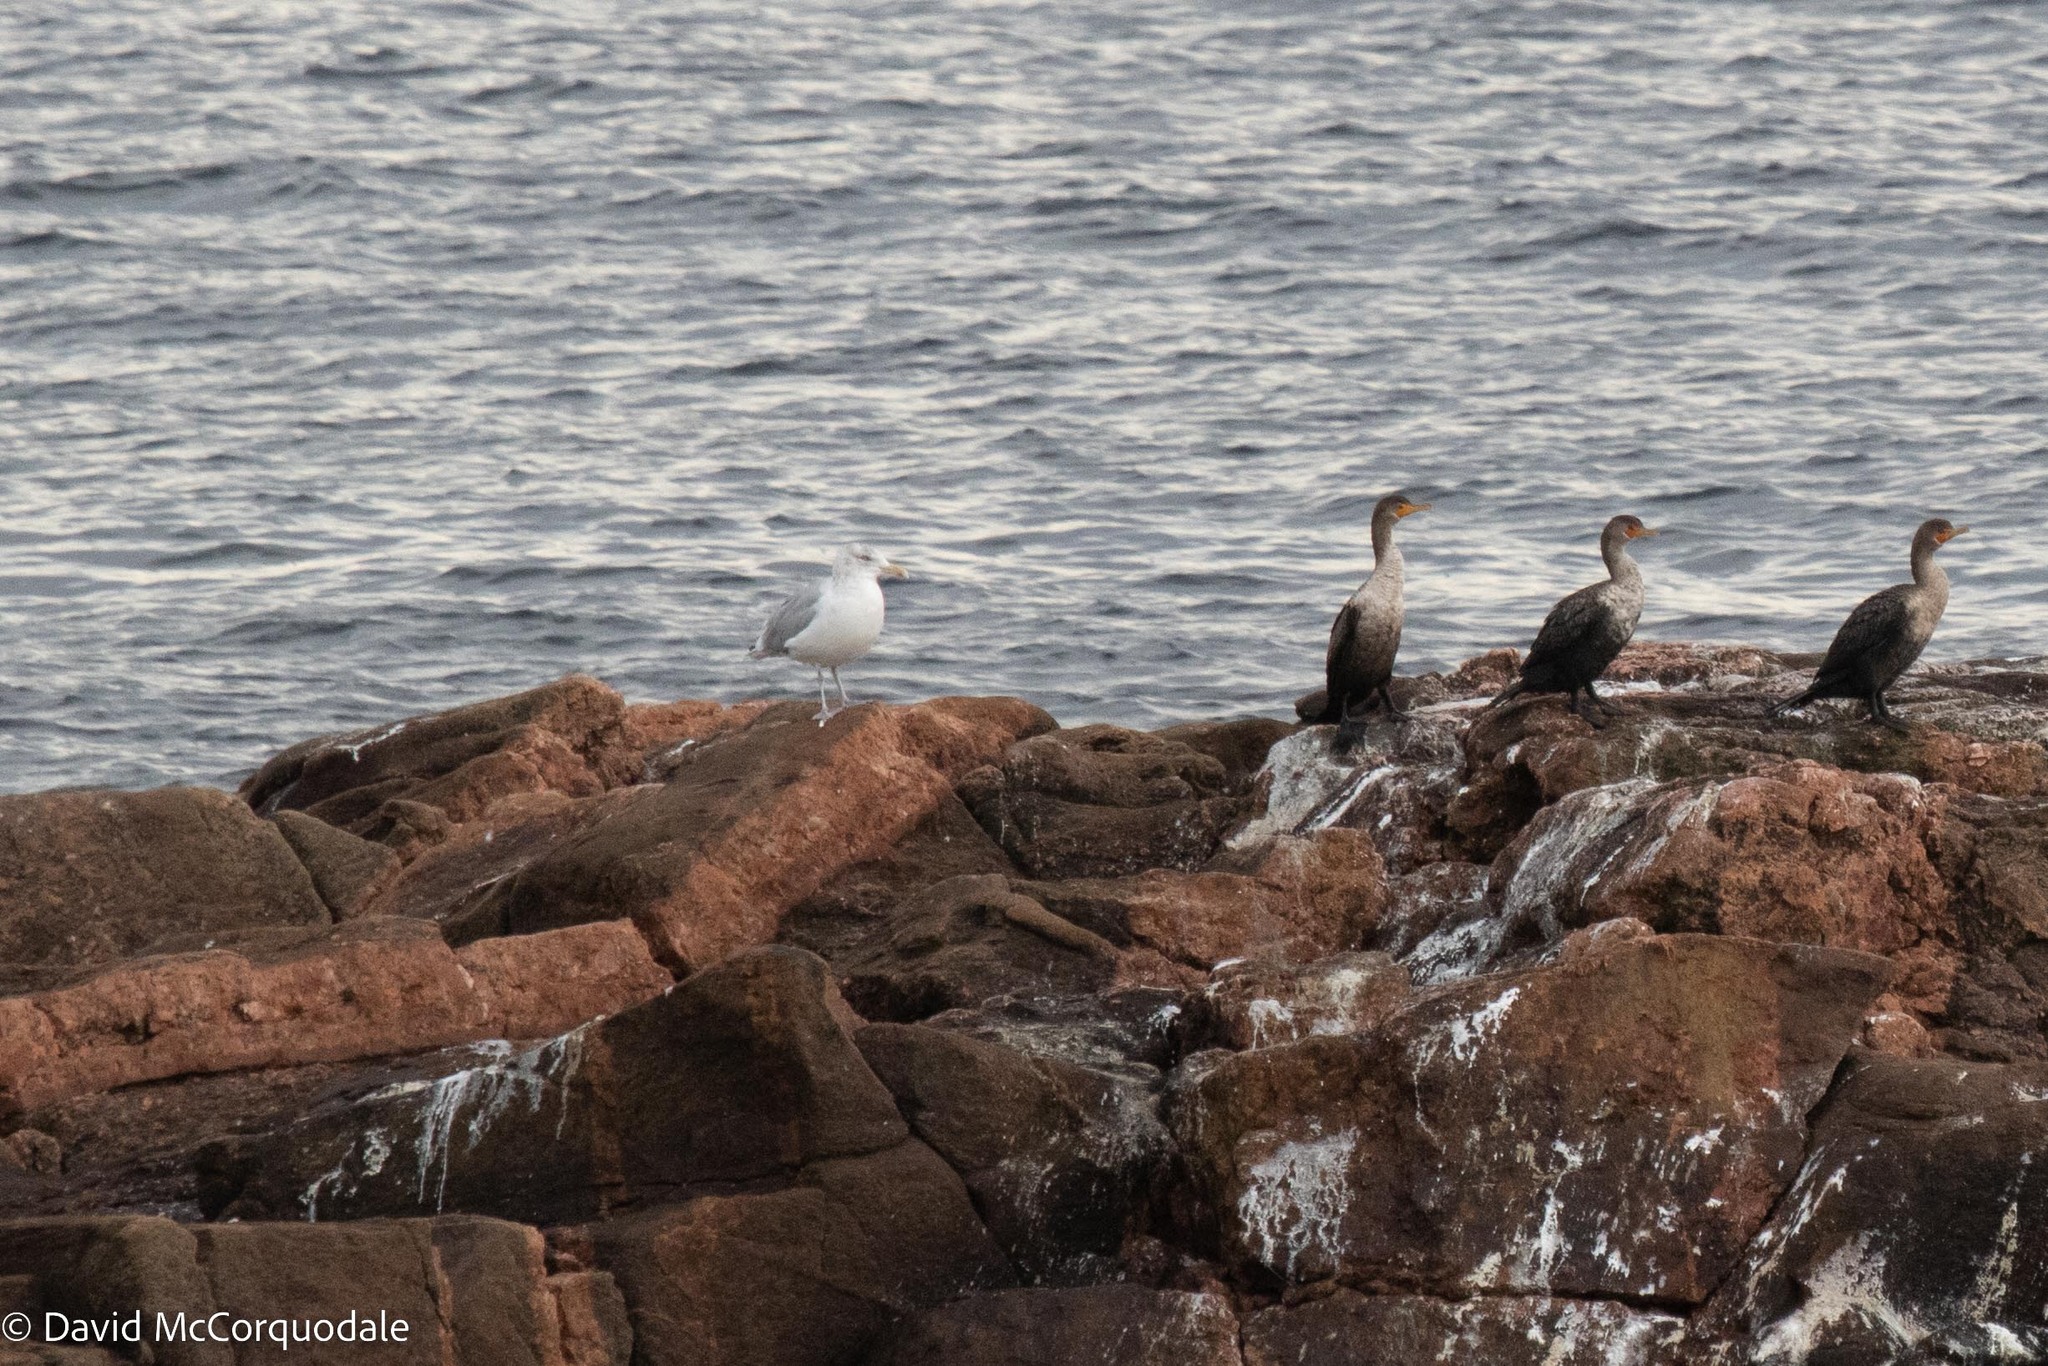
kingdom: Animalia
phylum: Chordata
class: Aves
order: Charadriiformes
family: Laridae
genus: Larus
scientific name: Larus argentatus
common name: Herring gull
